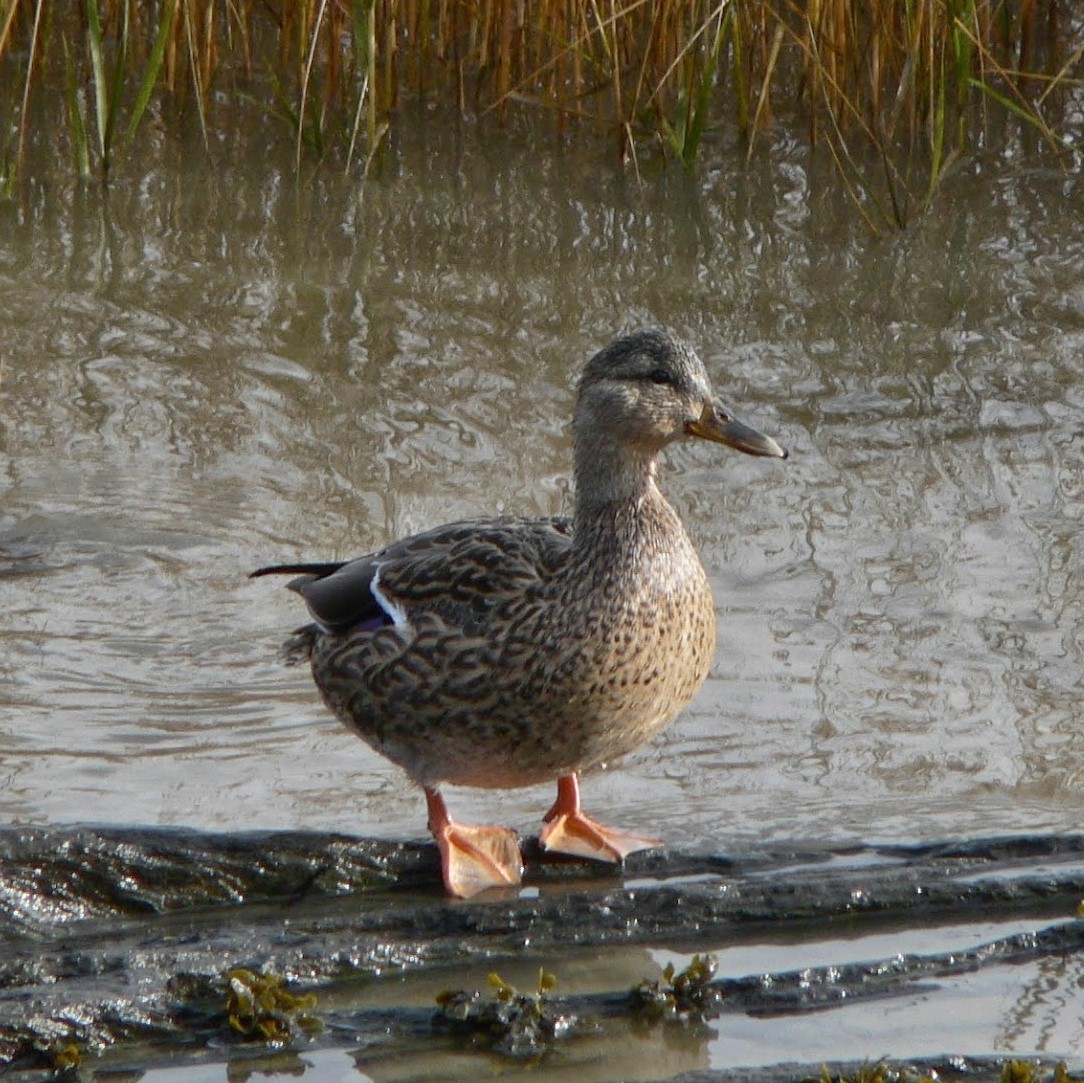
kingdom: Animalia
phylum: Chordata
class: Aves
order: Anseriformes
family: Anatidae
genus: Anas
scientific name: Anas platyrhynchos
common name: Mallard
